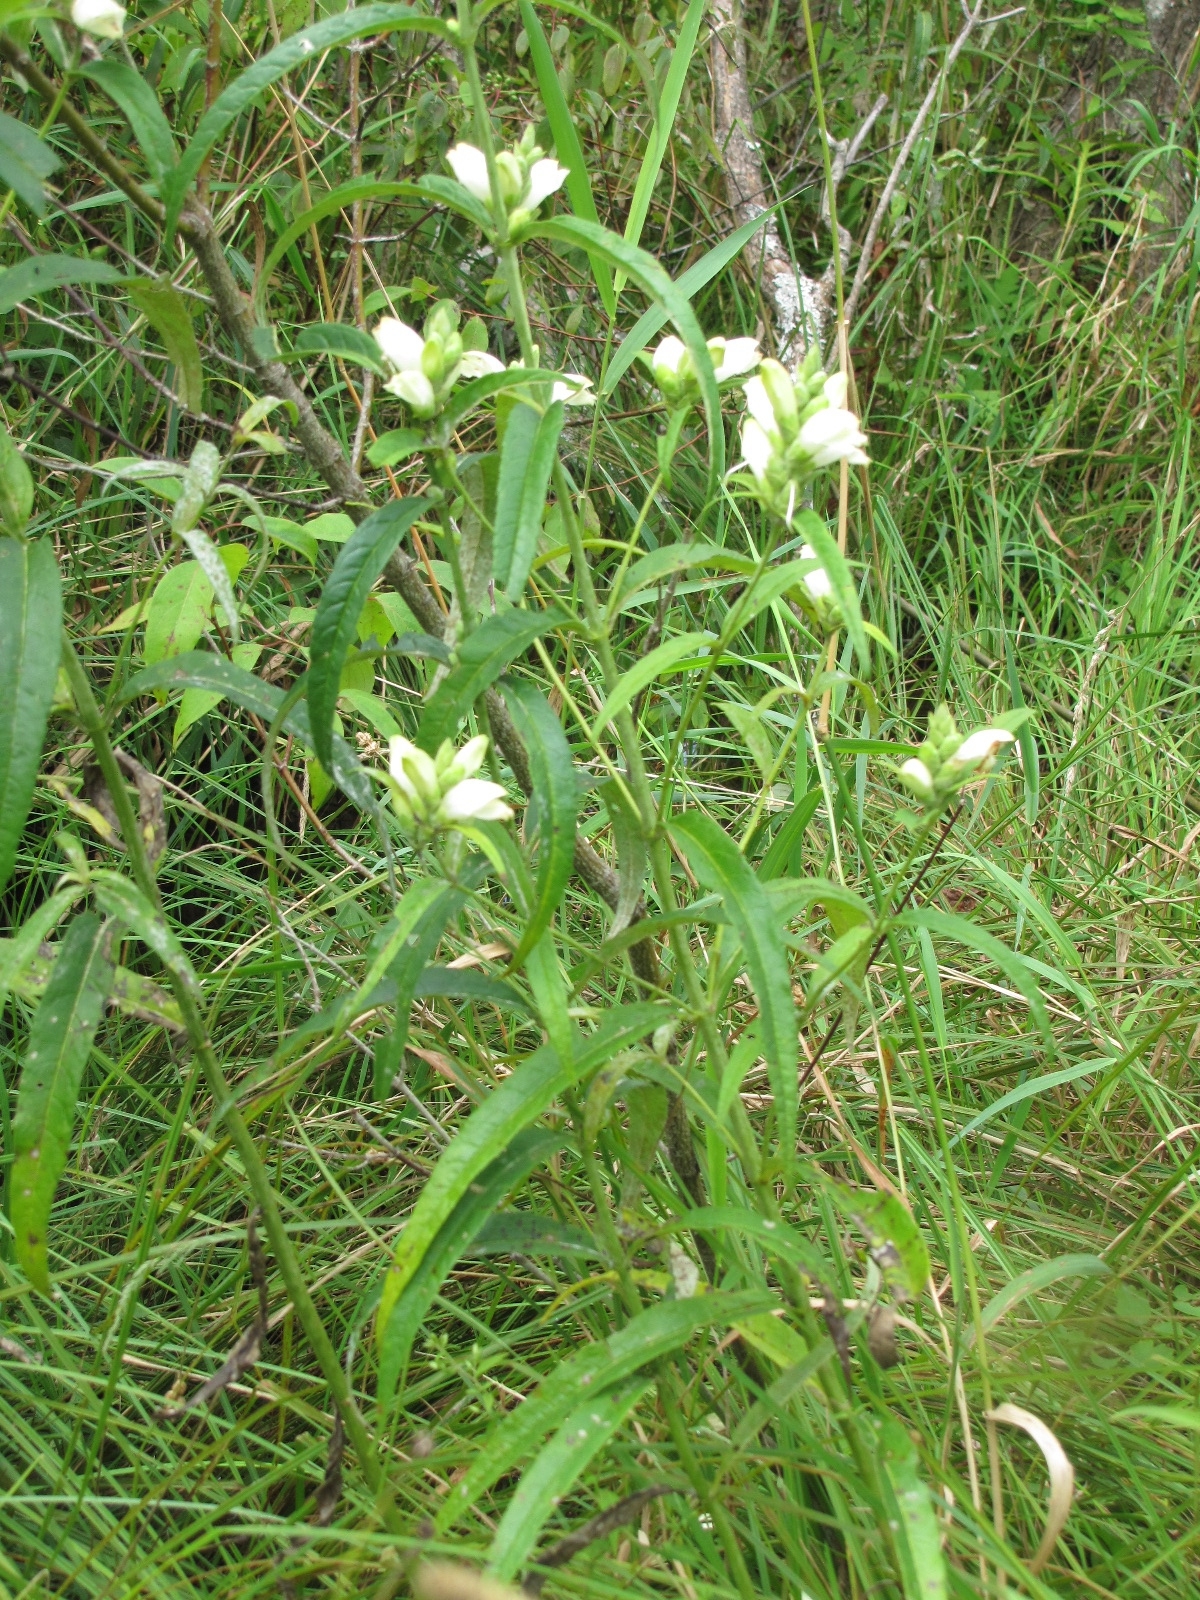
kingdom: Plantae
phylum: Tracheophyta
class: Magnoliopsida
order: Lamiales
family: Plantaginaceae
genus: Chelone
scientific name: Chelone glabra
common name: Snakehead
